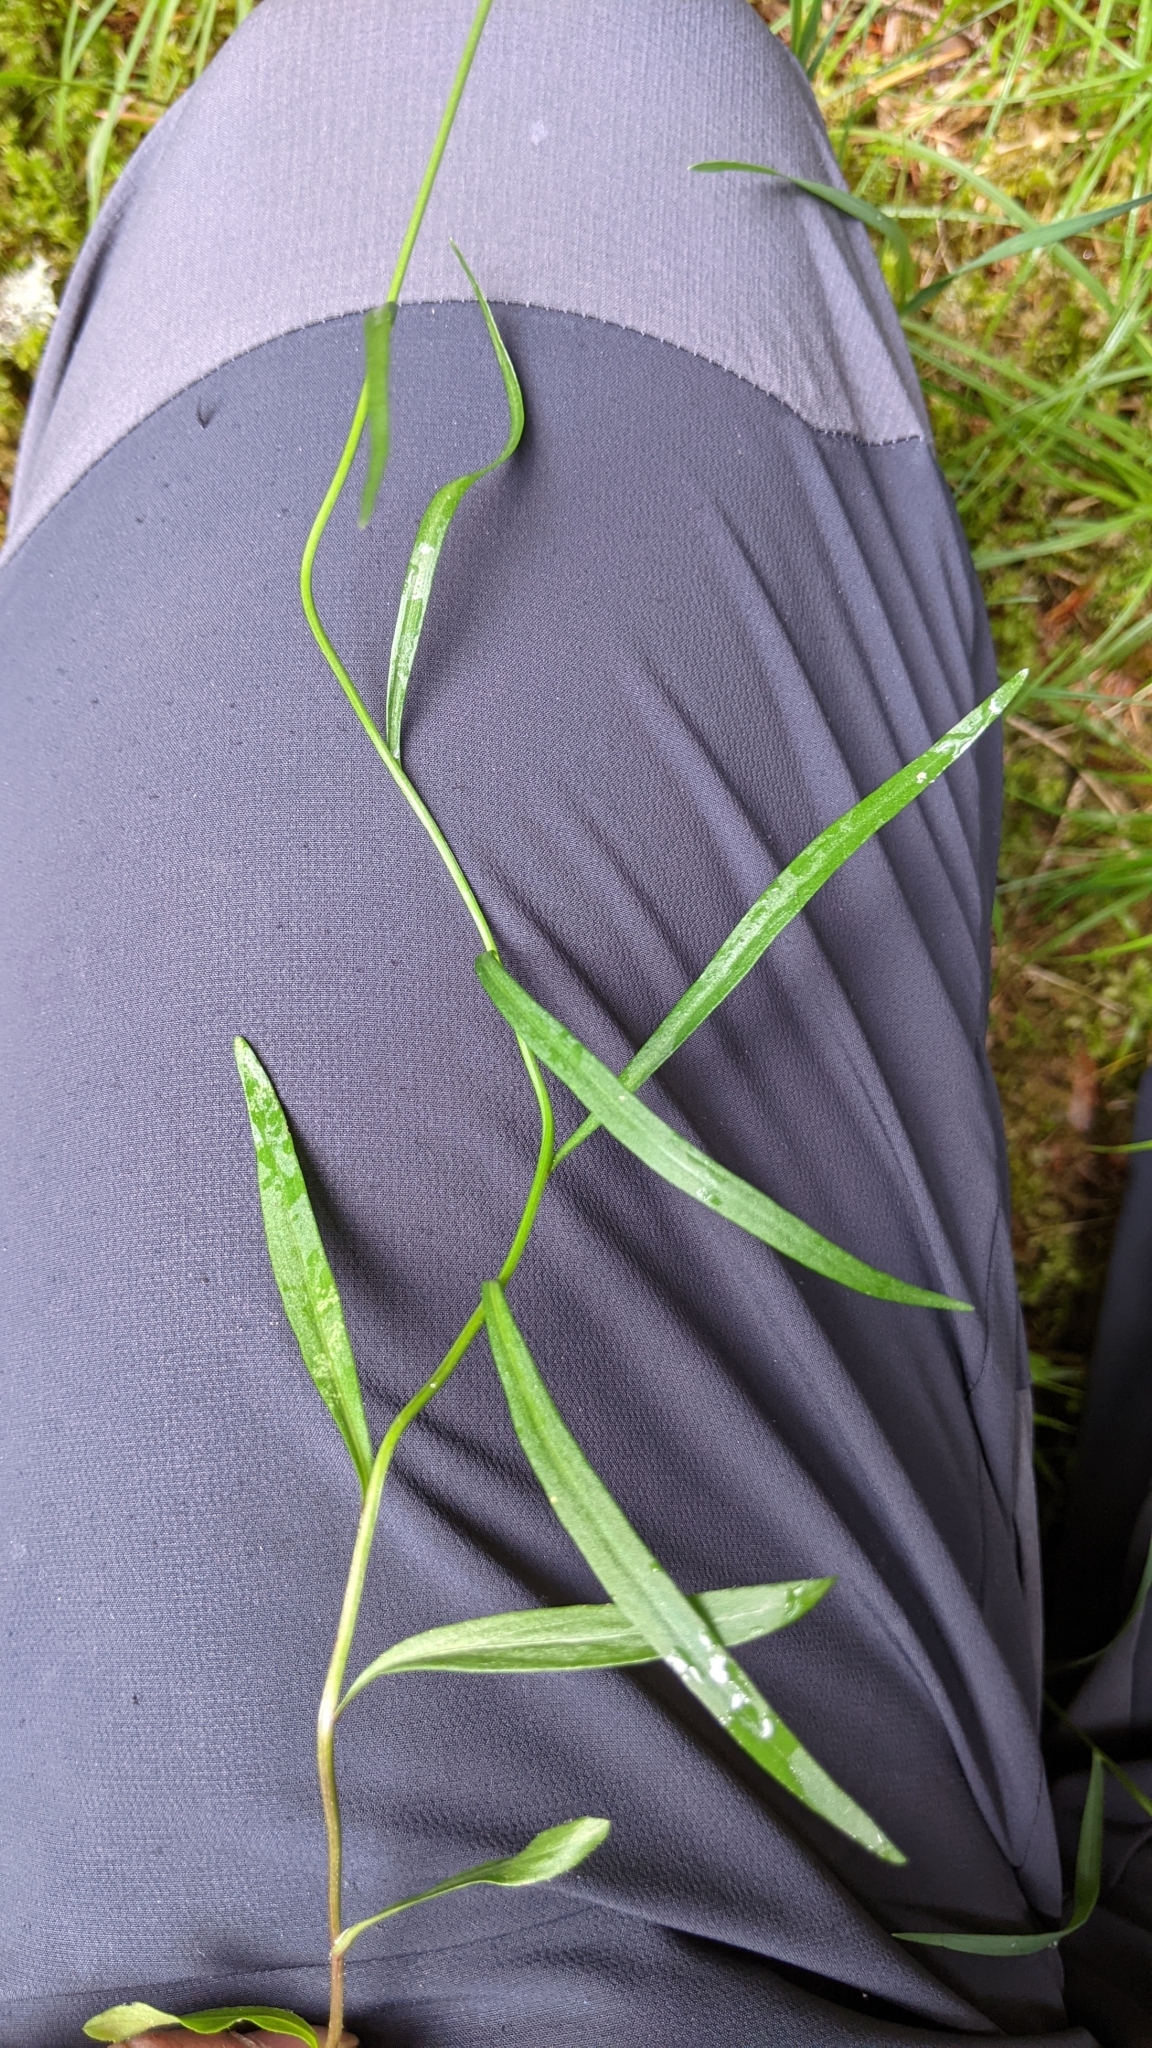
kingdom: Plantae
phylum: Tracheophyta
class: Magnoliopsida
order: Asterales
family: Campanulaceae
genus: Campanula
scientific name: Campanula scheuchzeri
